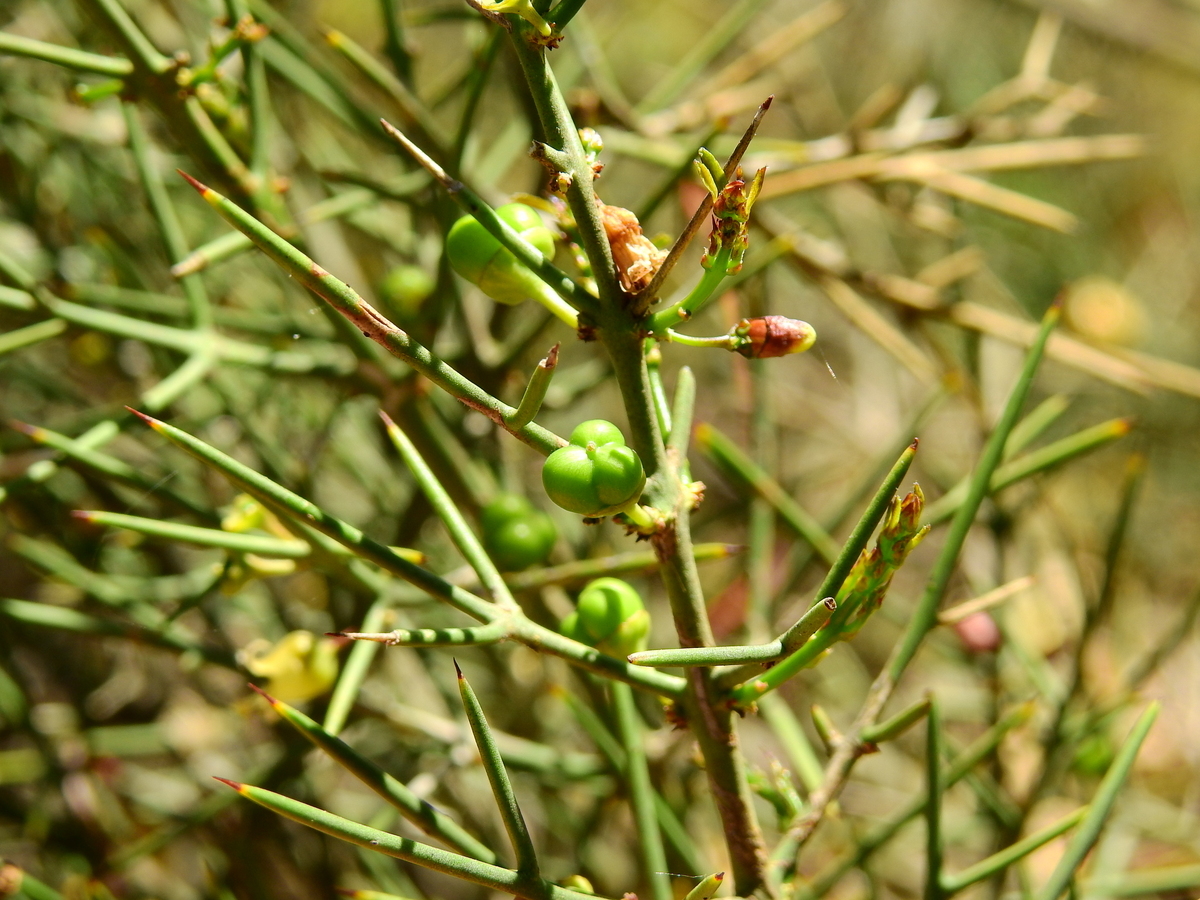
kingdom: Plantae
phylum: Tracheophyta
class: Magnoliopsida
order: Rosales
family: Rhamnaceae
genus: Colletia
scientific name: Colletia spinosissima
